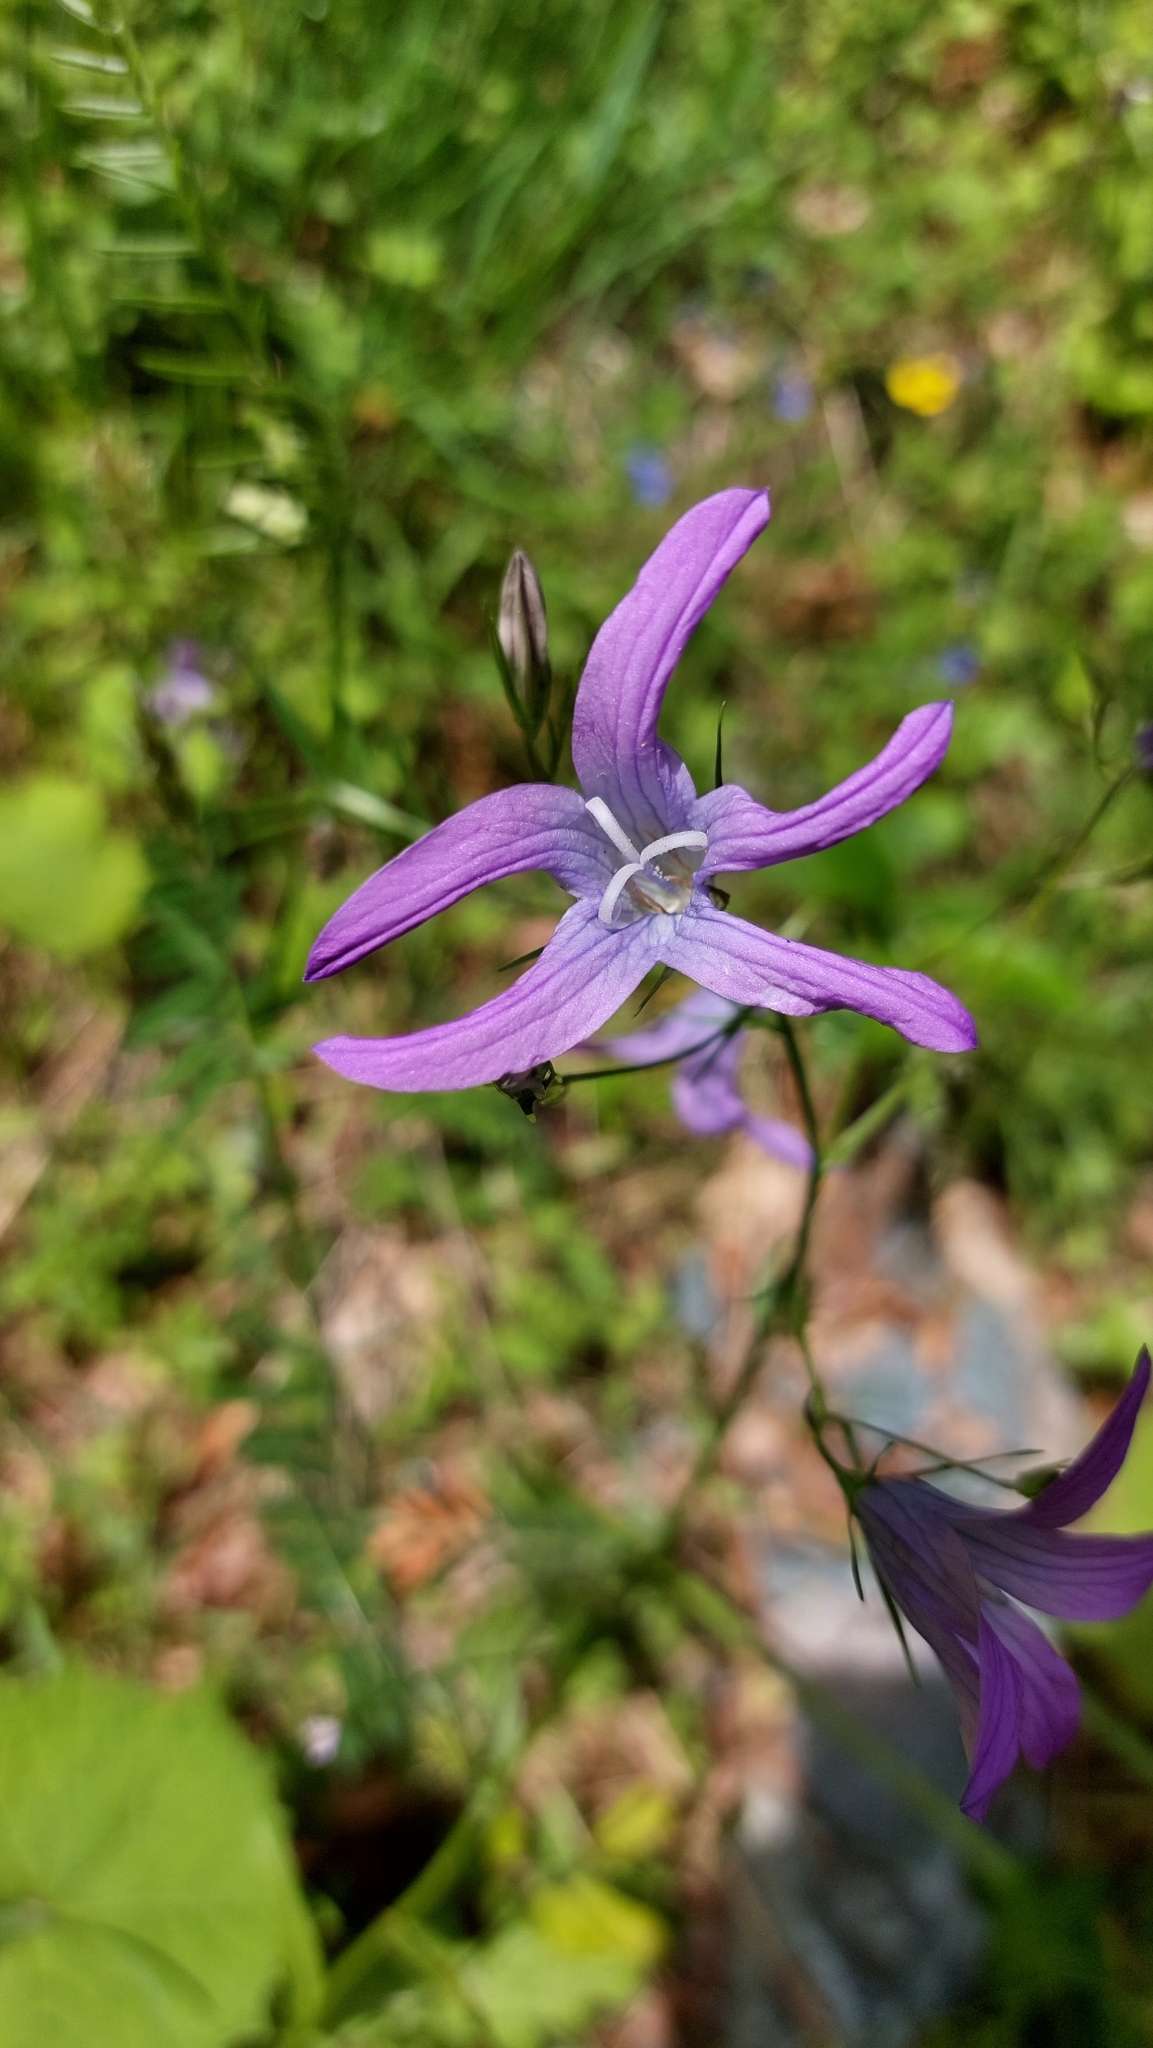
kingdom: Plantae
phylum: Tracheophyta
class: Magnoliopsida
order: Asterales
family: Campanulaceae
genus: Campanula
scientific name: Campanula patula
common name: Spreading bellflower
